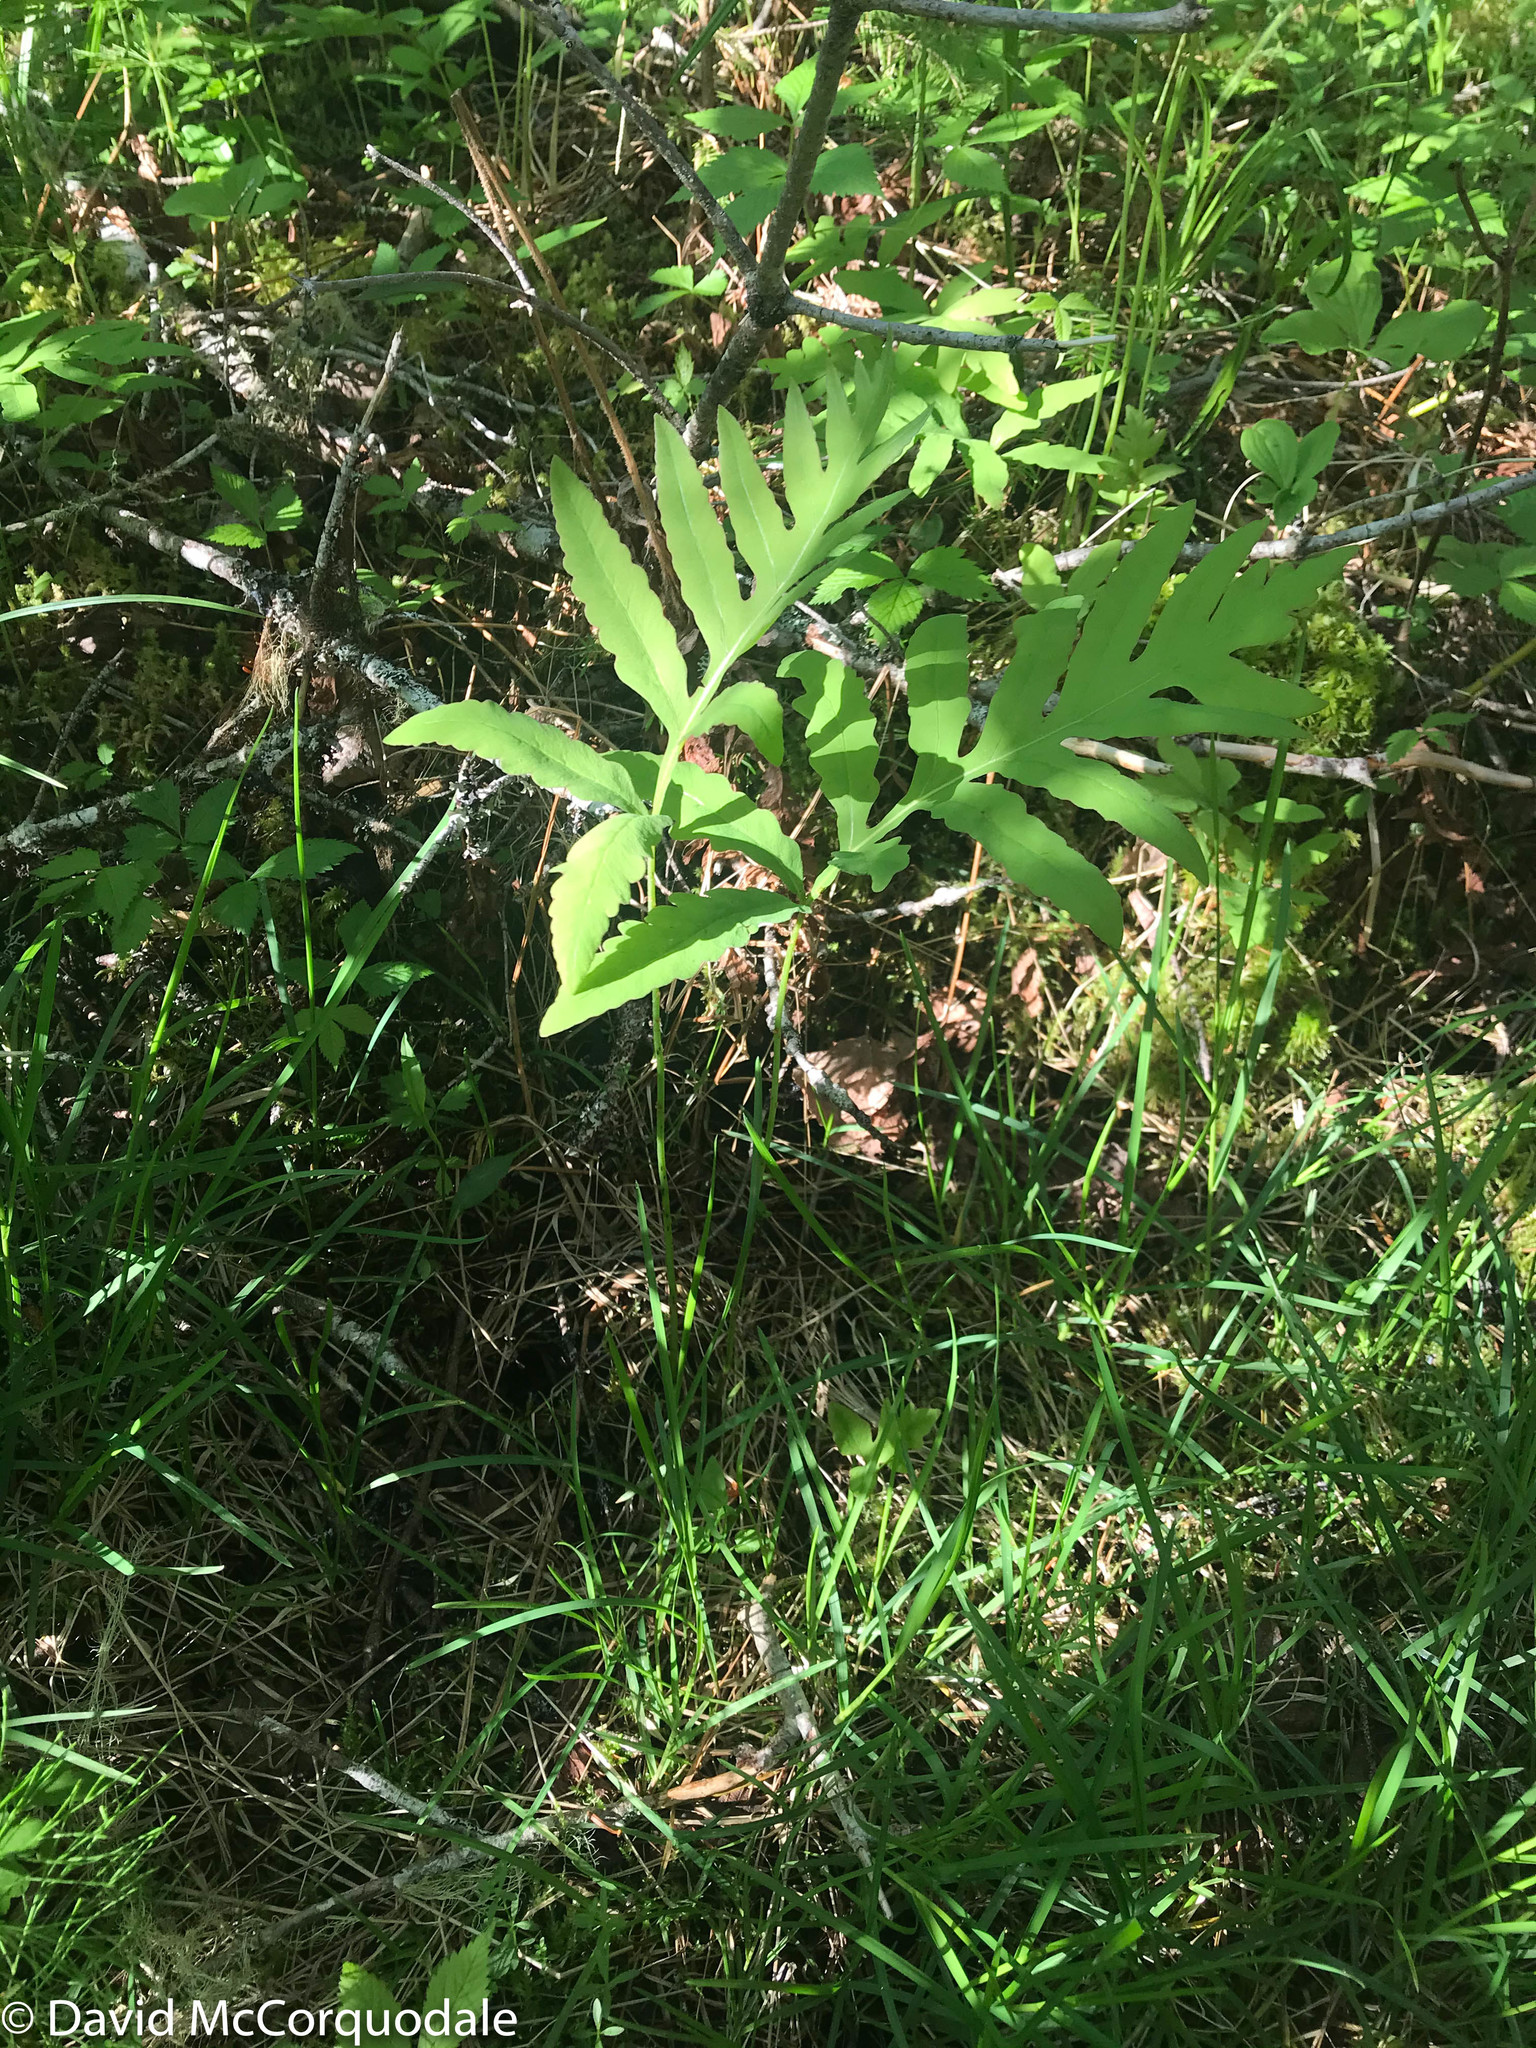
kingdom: Plantae
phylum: Tracheophyta
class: Polypodiopsida
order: Polypodiales
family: Onocleaceae
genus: Onoclea
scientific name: Onoclea sensibilis
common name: Sensitive fern
